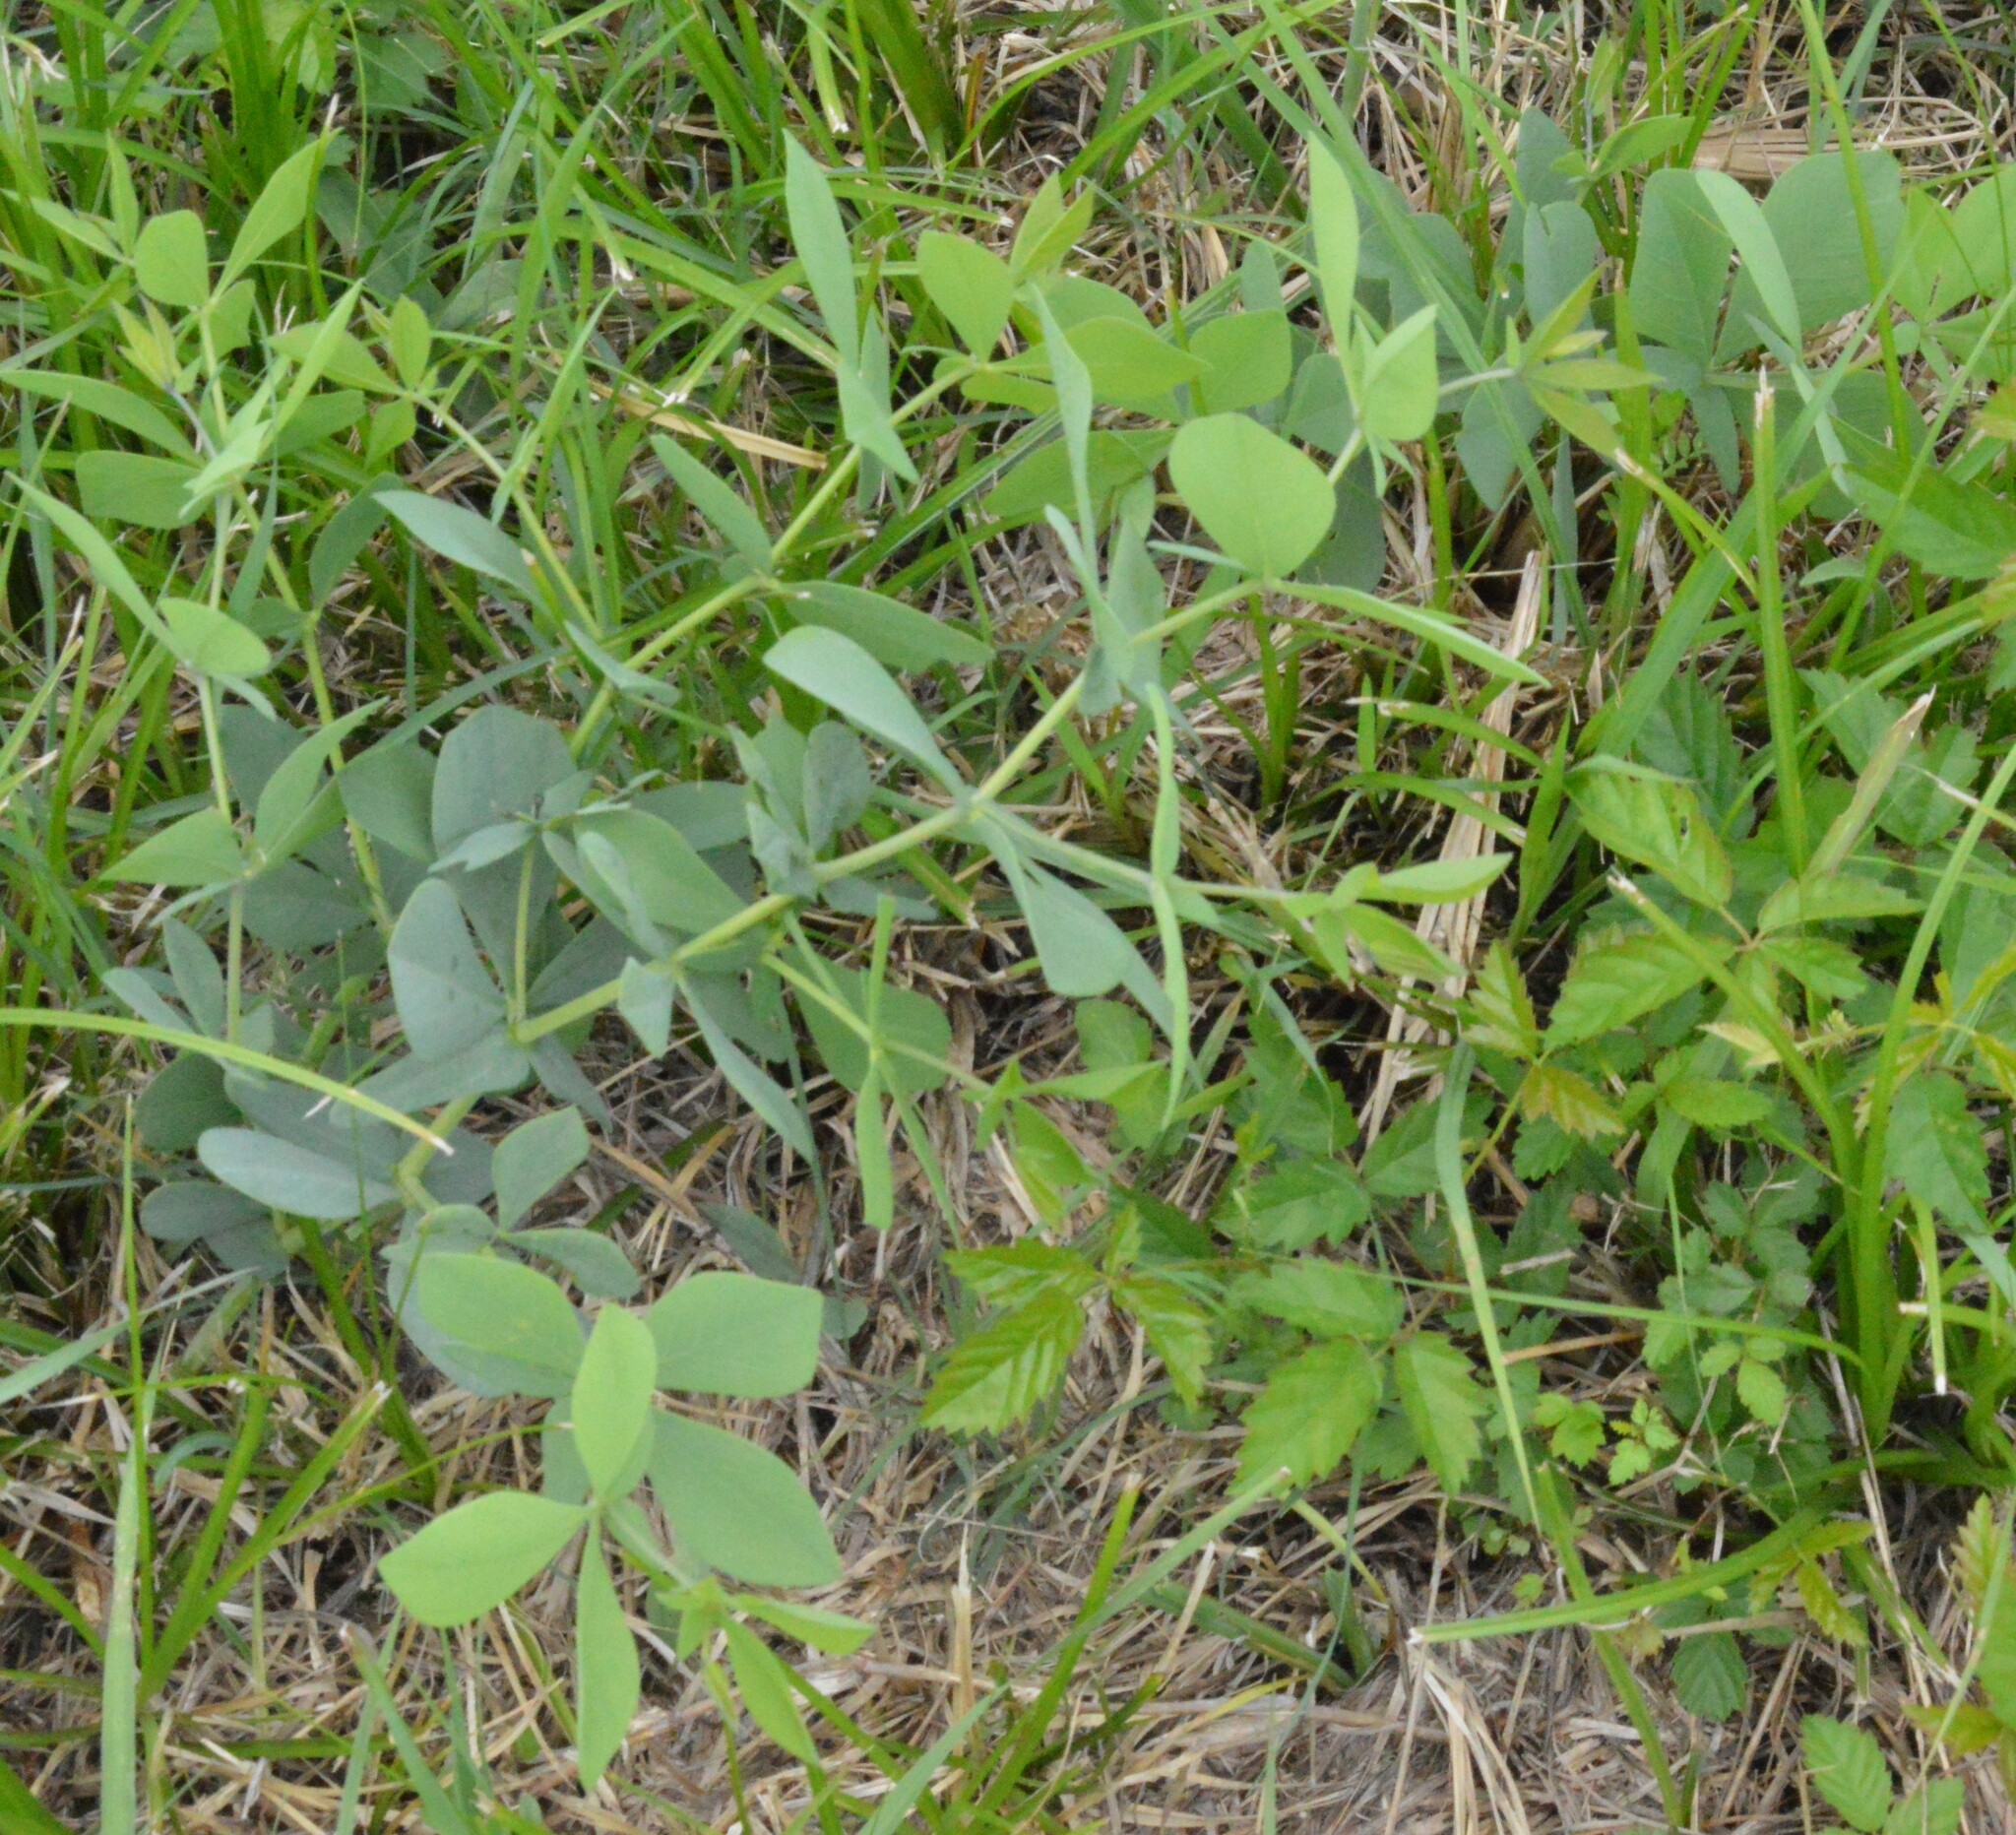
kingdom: Plantae
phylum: Tracheophyta
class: Magnoliopsida
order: Fabales
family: Fabaceae
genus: Baptisia
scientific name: Baptisia bracteata
